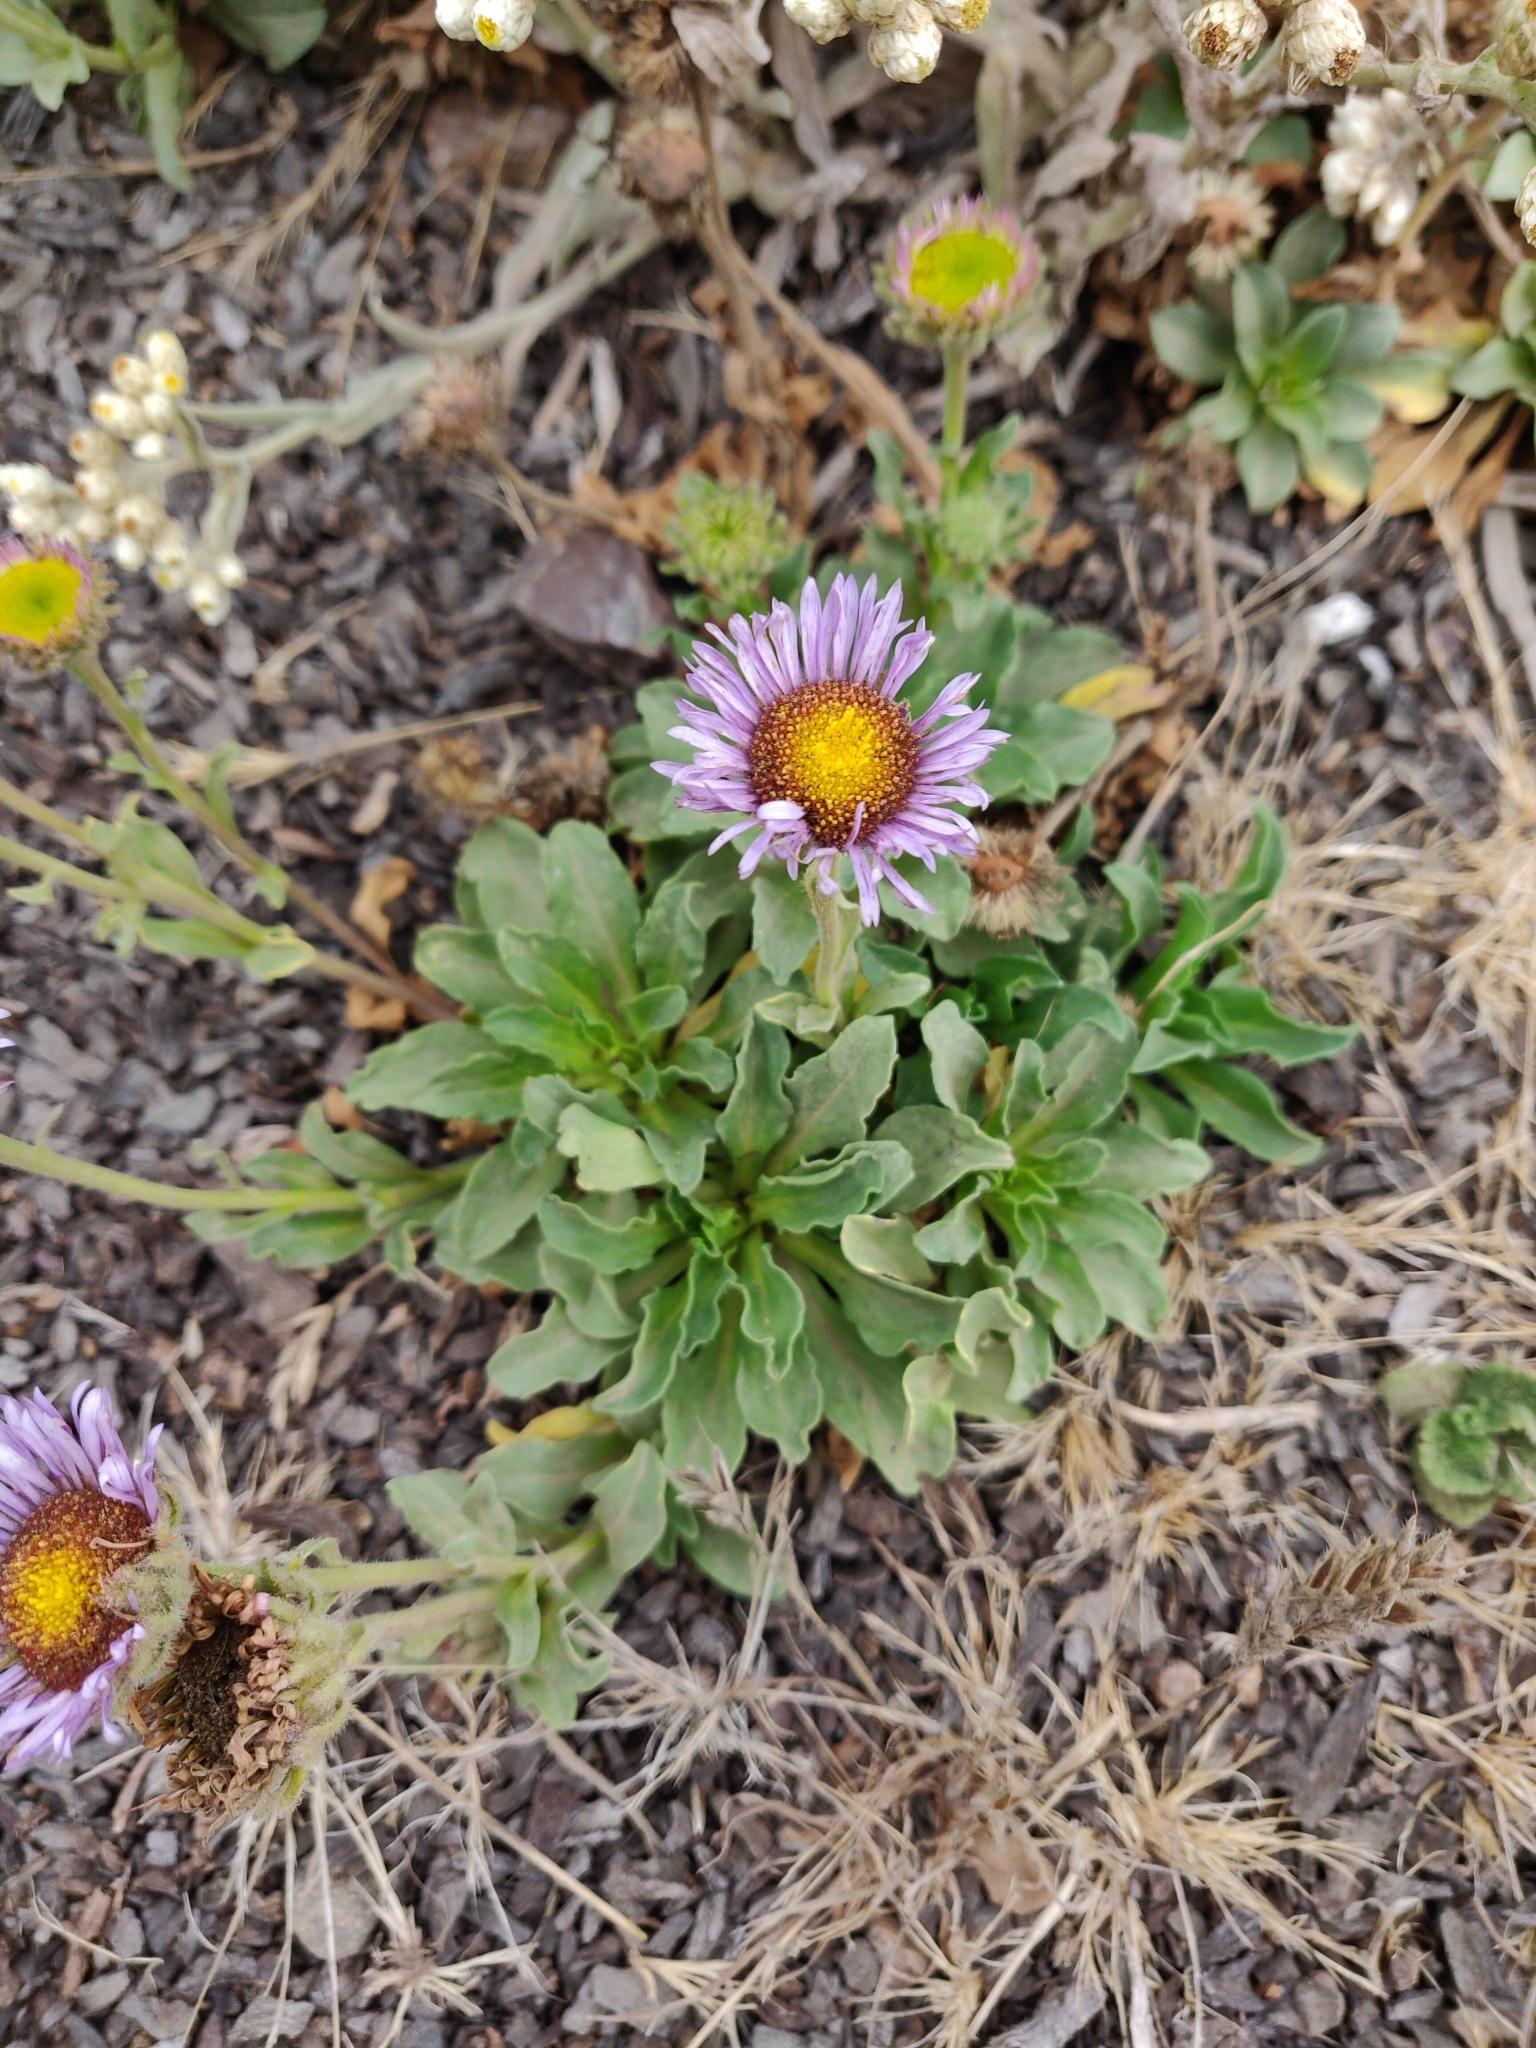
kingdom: Plantae
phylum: Tracheophyta
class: Magnoliopsida
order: Asterales
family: Asteraceae
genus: Erigeron
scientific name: Erigeron glaucus
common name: Seaside daisy
